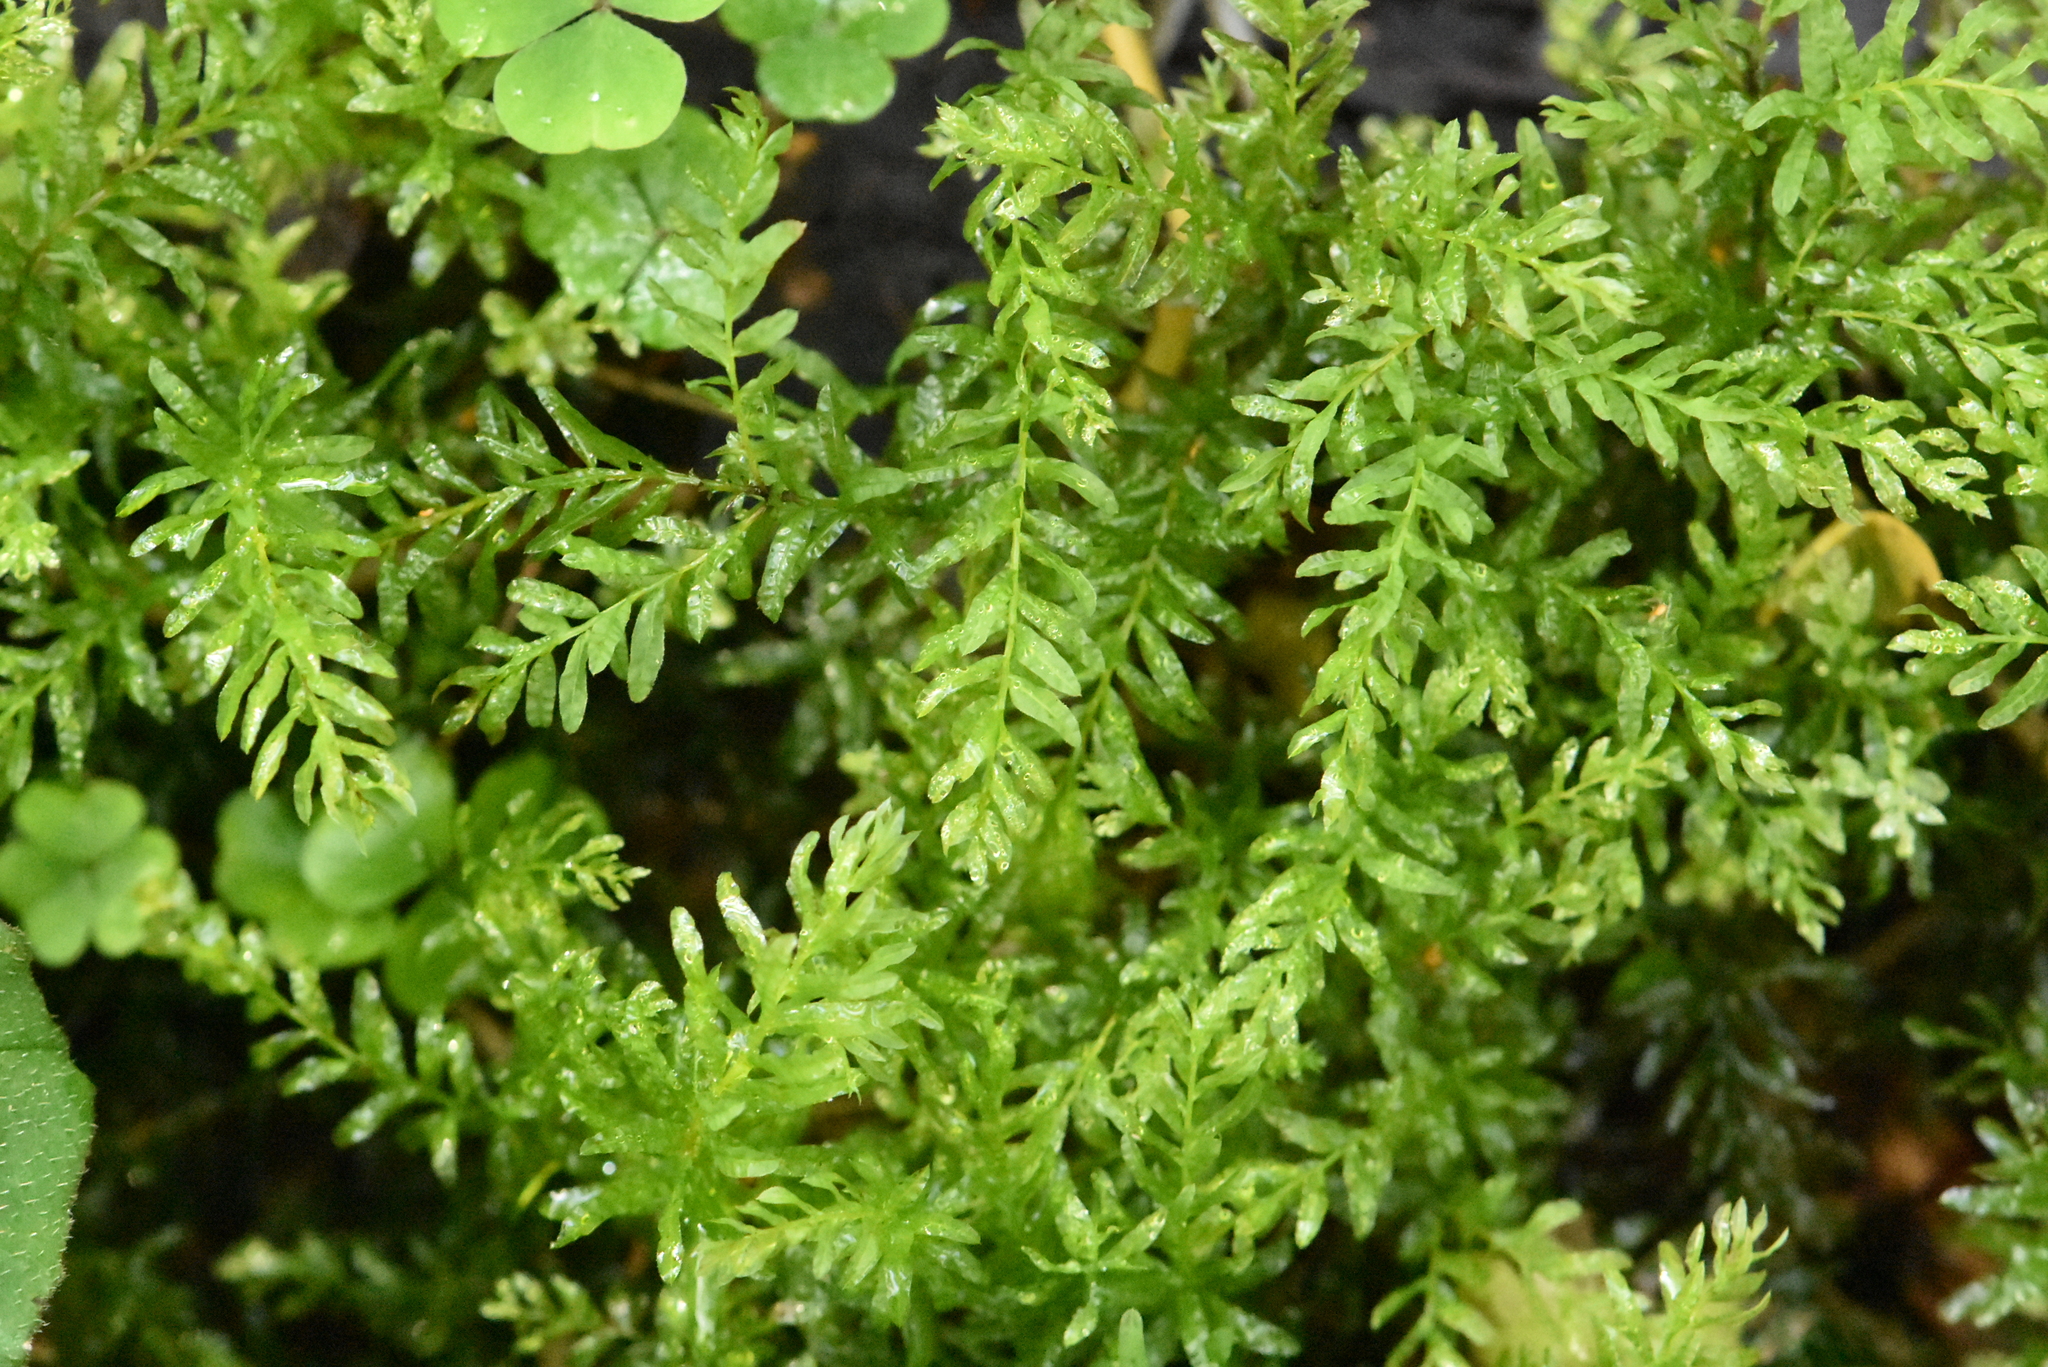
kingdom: Plantae
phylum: Bryophyta
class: Bryopsida
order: Bryales
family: Mniaceae
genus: Plagiomnium
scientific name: Plagiomnium undulatum
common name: Hart's-tongue thyme-moss
